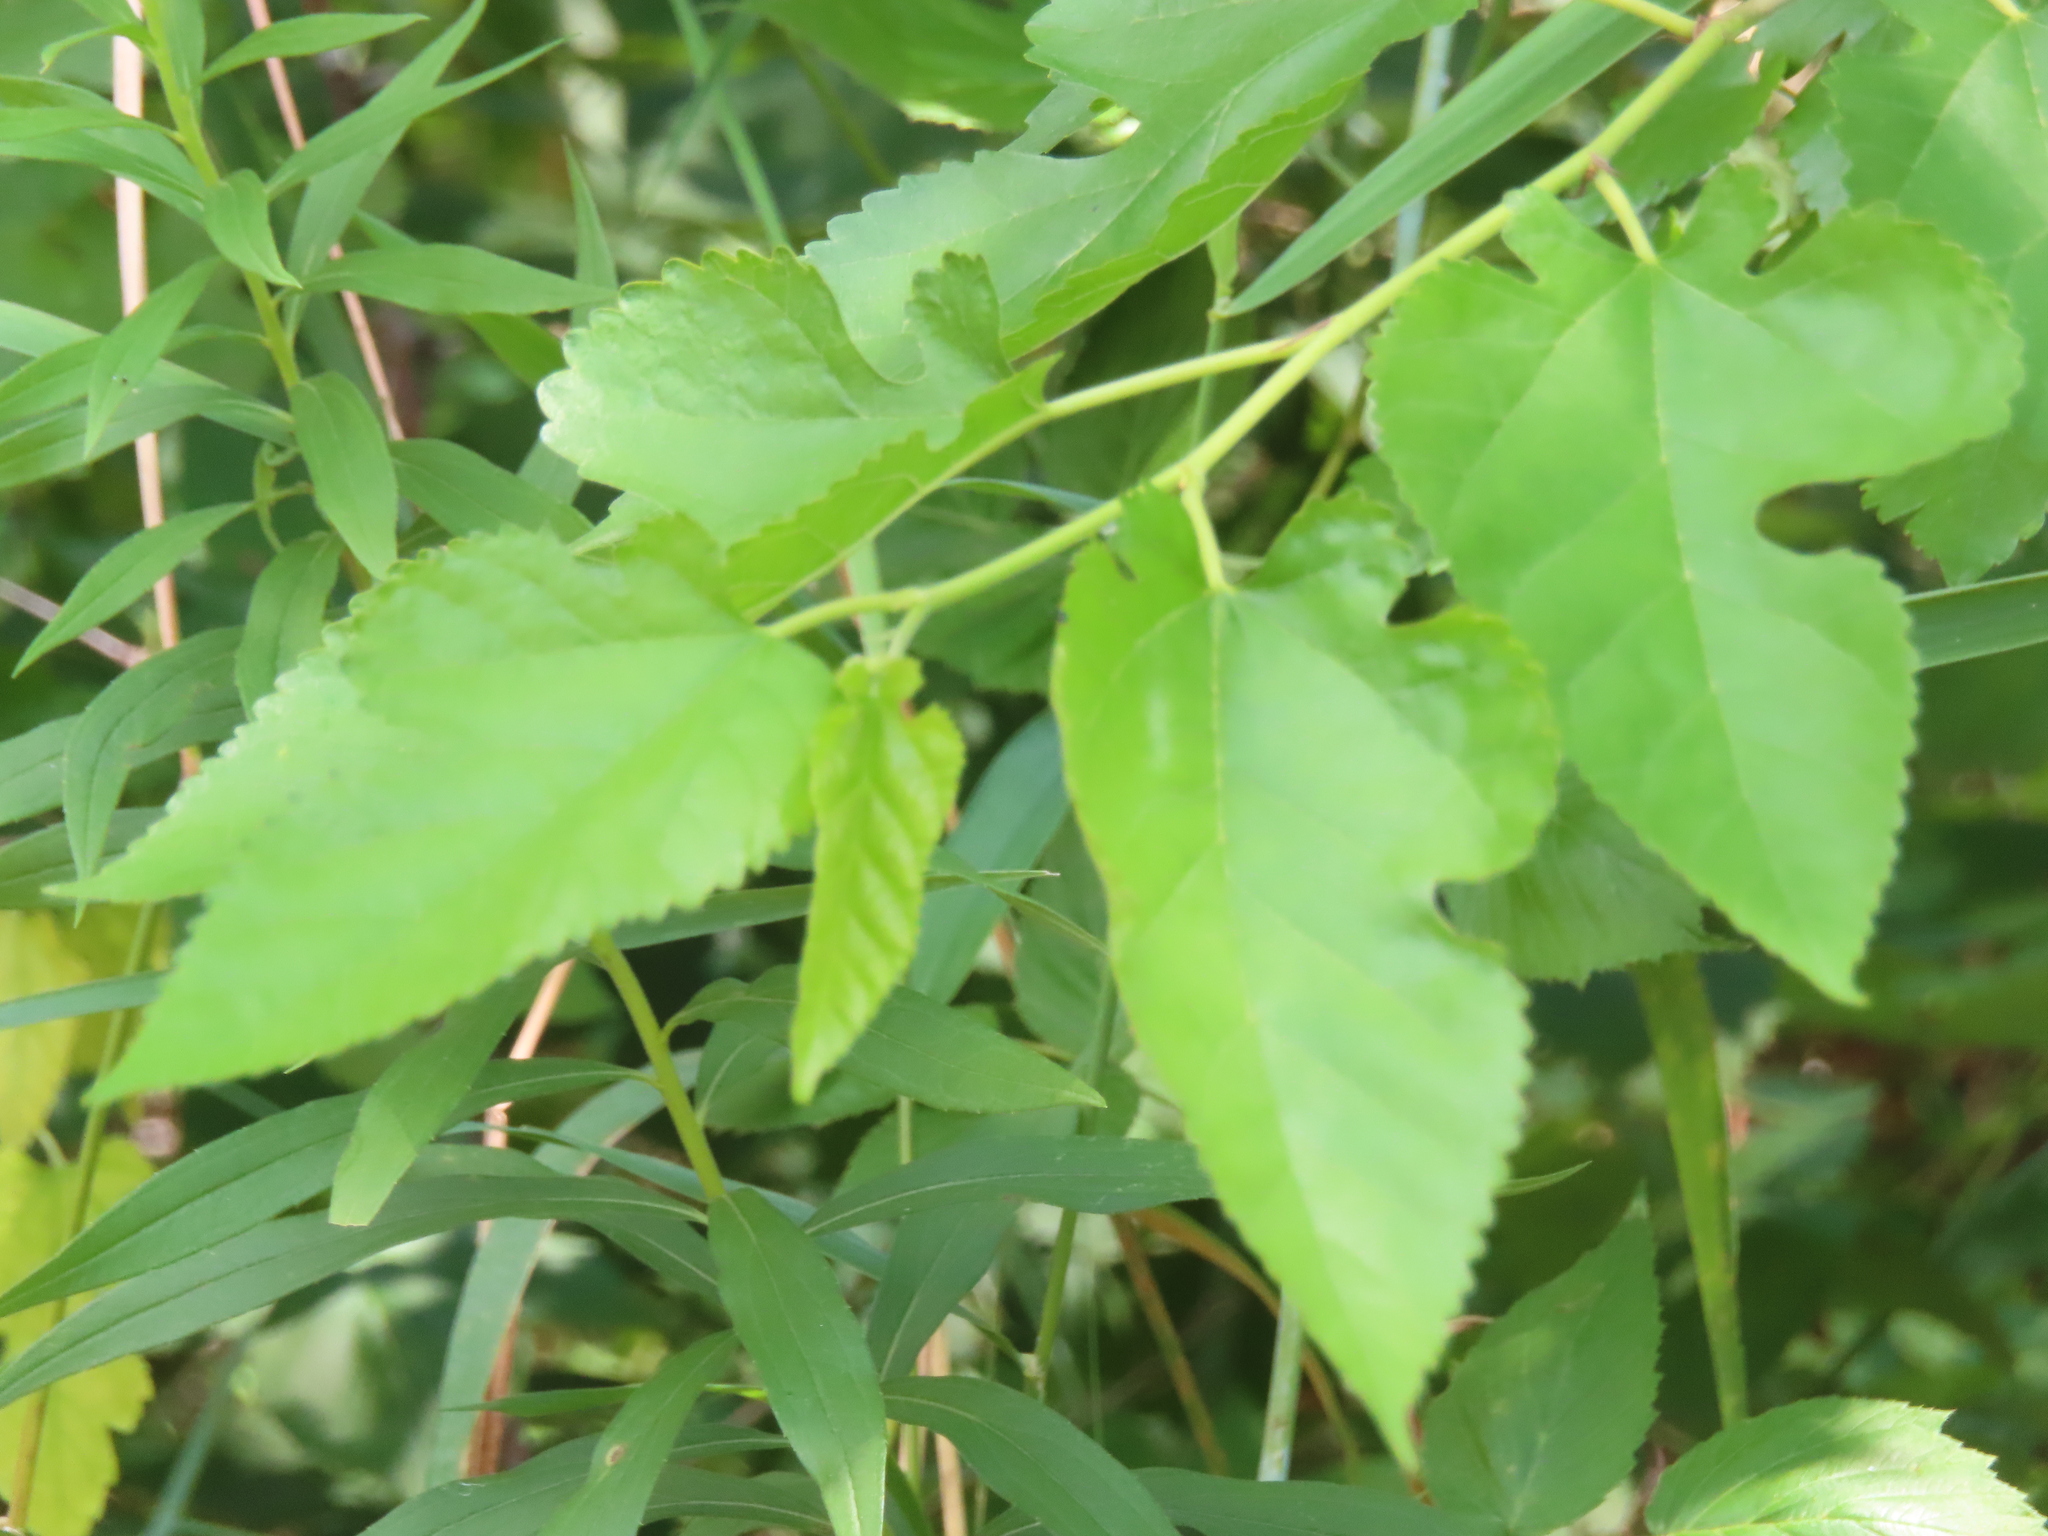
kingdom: Plantae
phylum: Tracheophyta
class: Magnoliopsida
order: Rosales
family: Moraceae
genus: Morus
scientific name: Morus alba
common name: White mulberry
